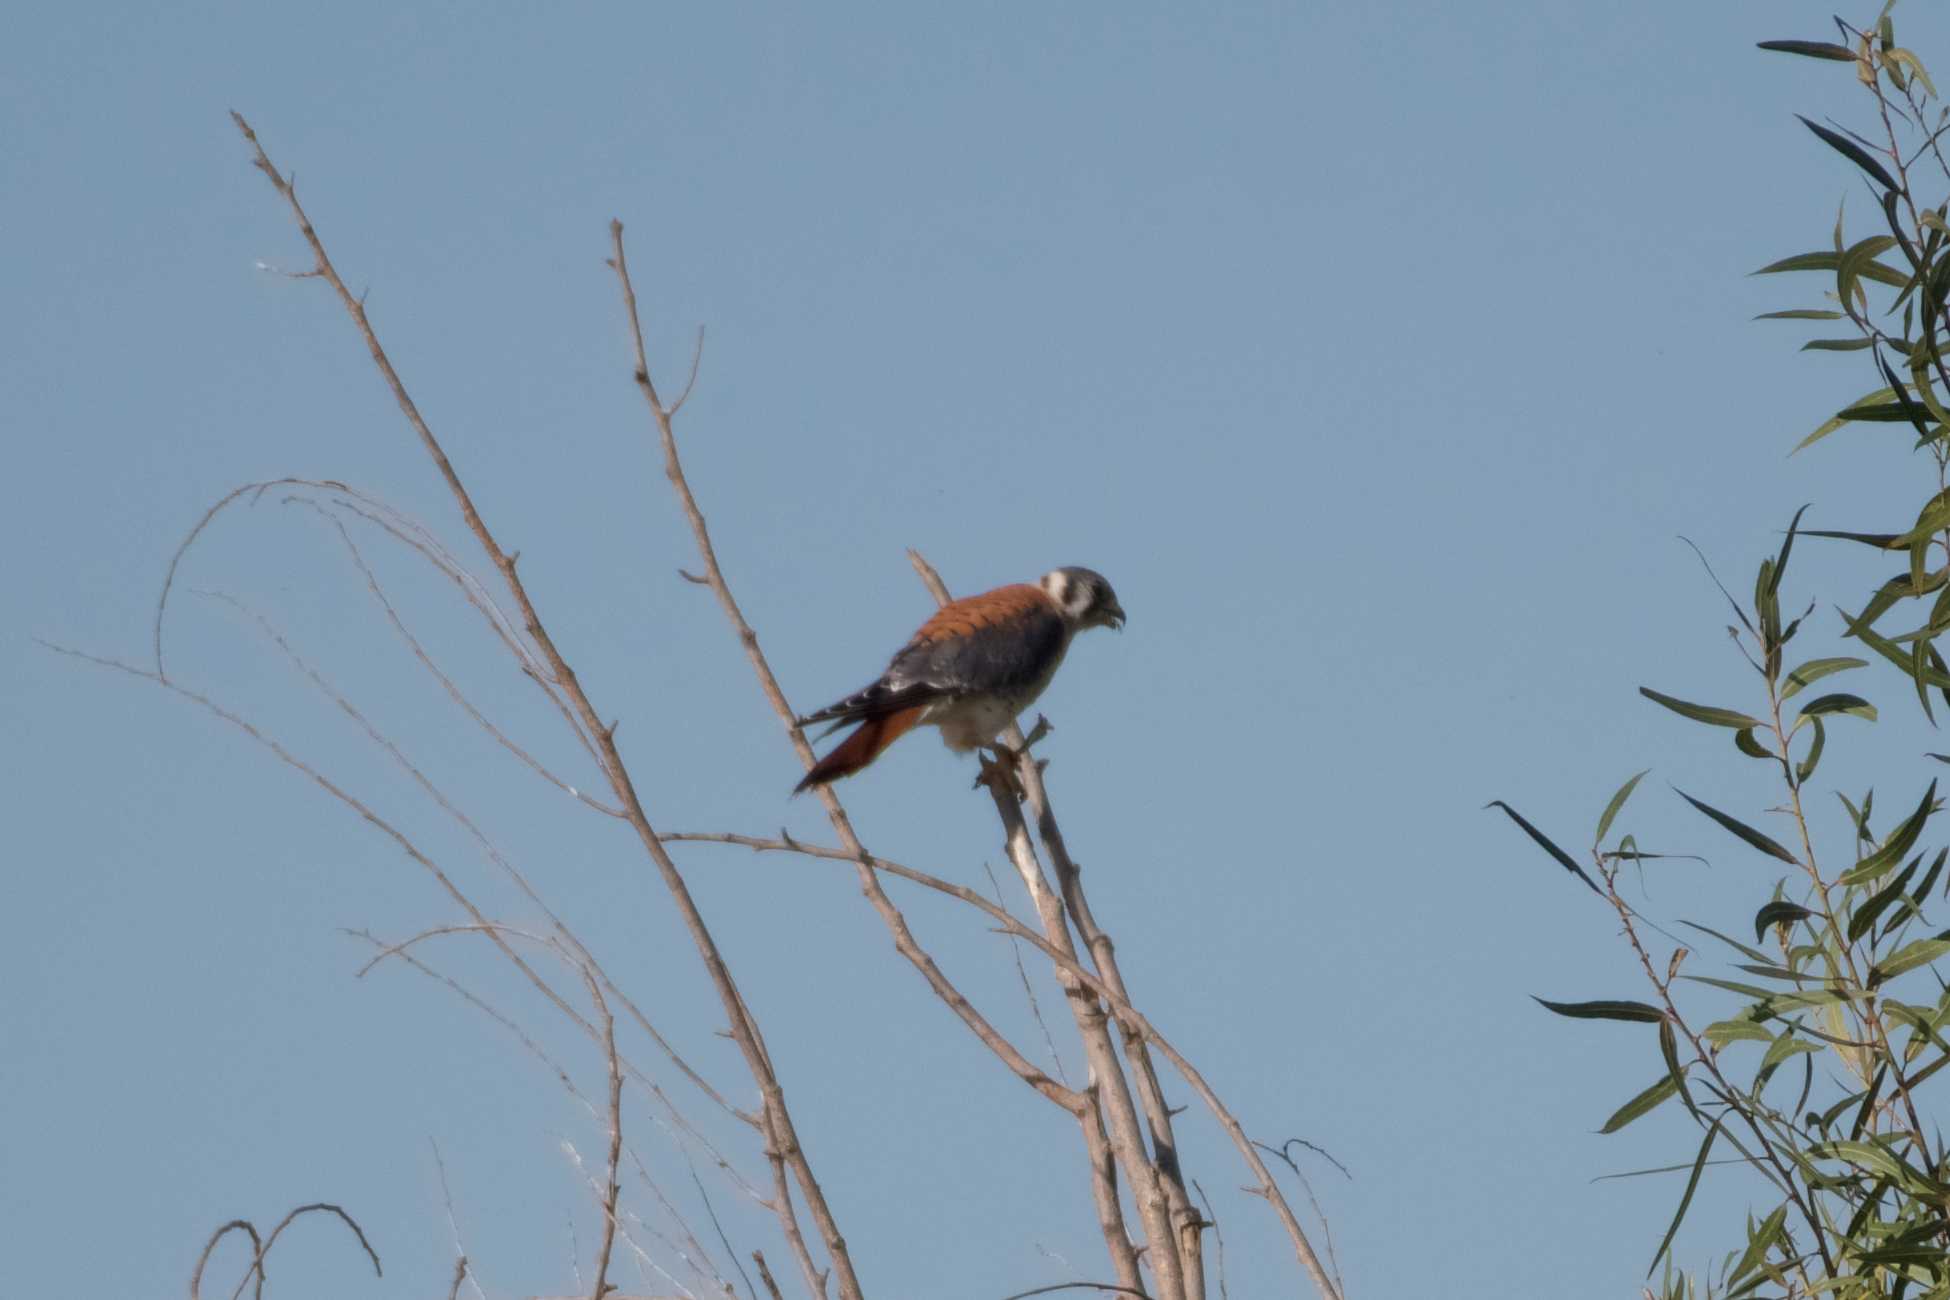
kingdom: Animalia
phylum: Chordata
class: Aves
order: Falconiformes
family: Falconidae
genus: Falco
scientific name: Falco sparverius
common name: American kestrel
